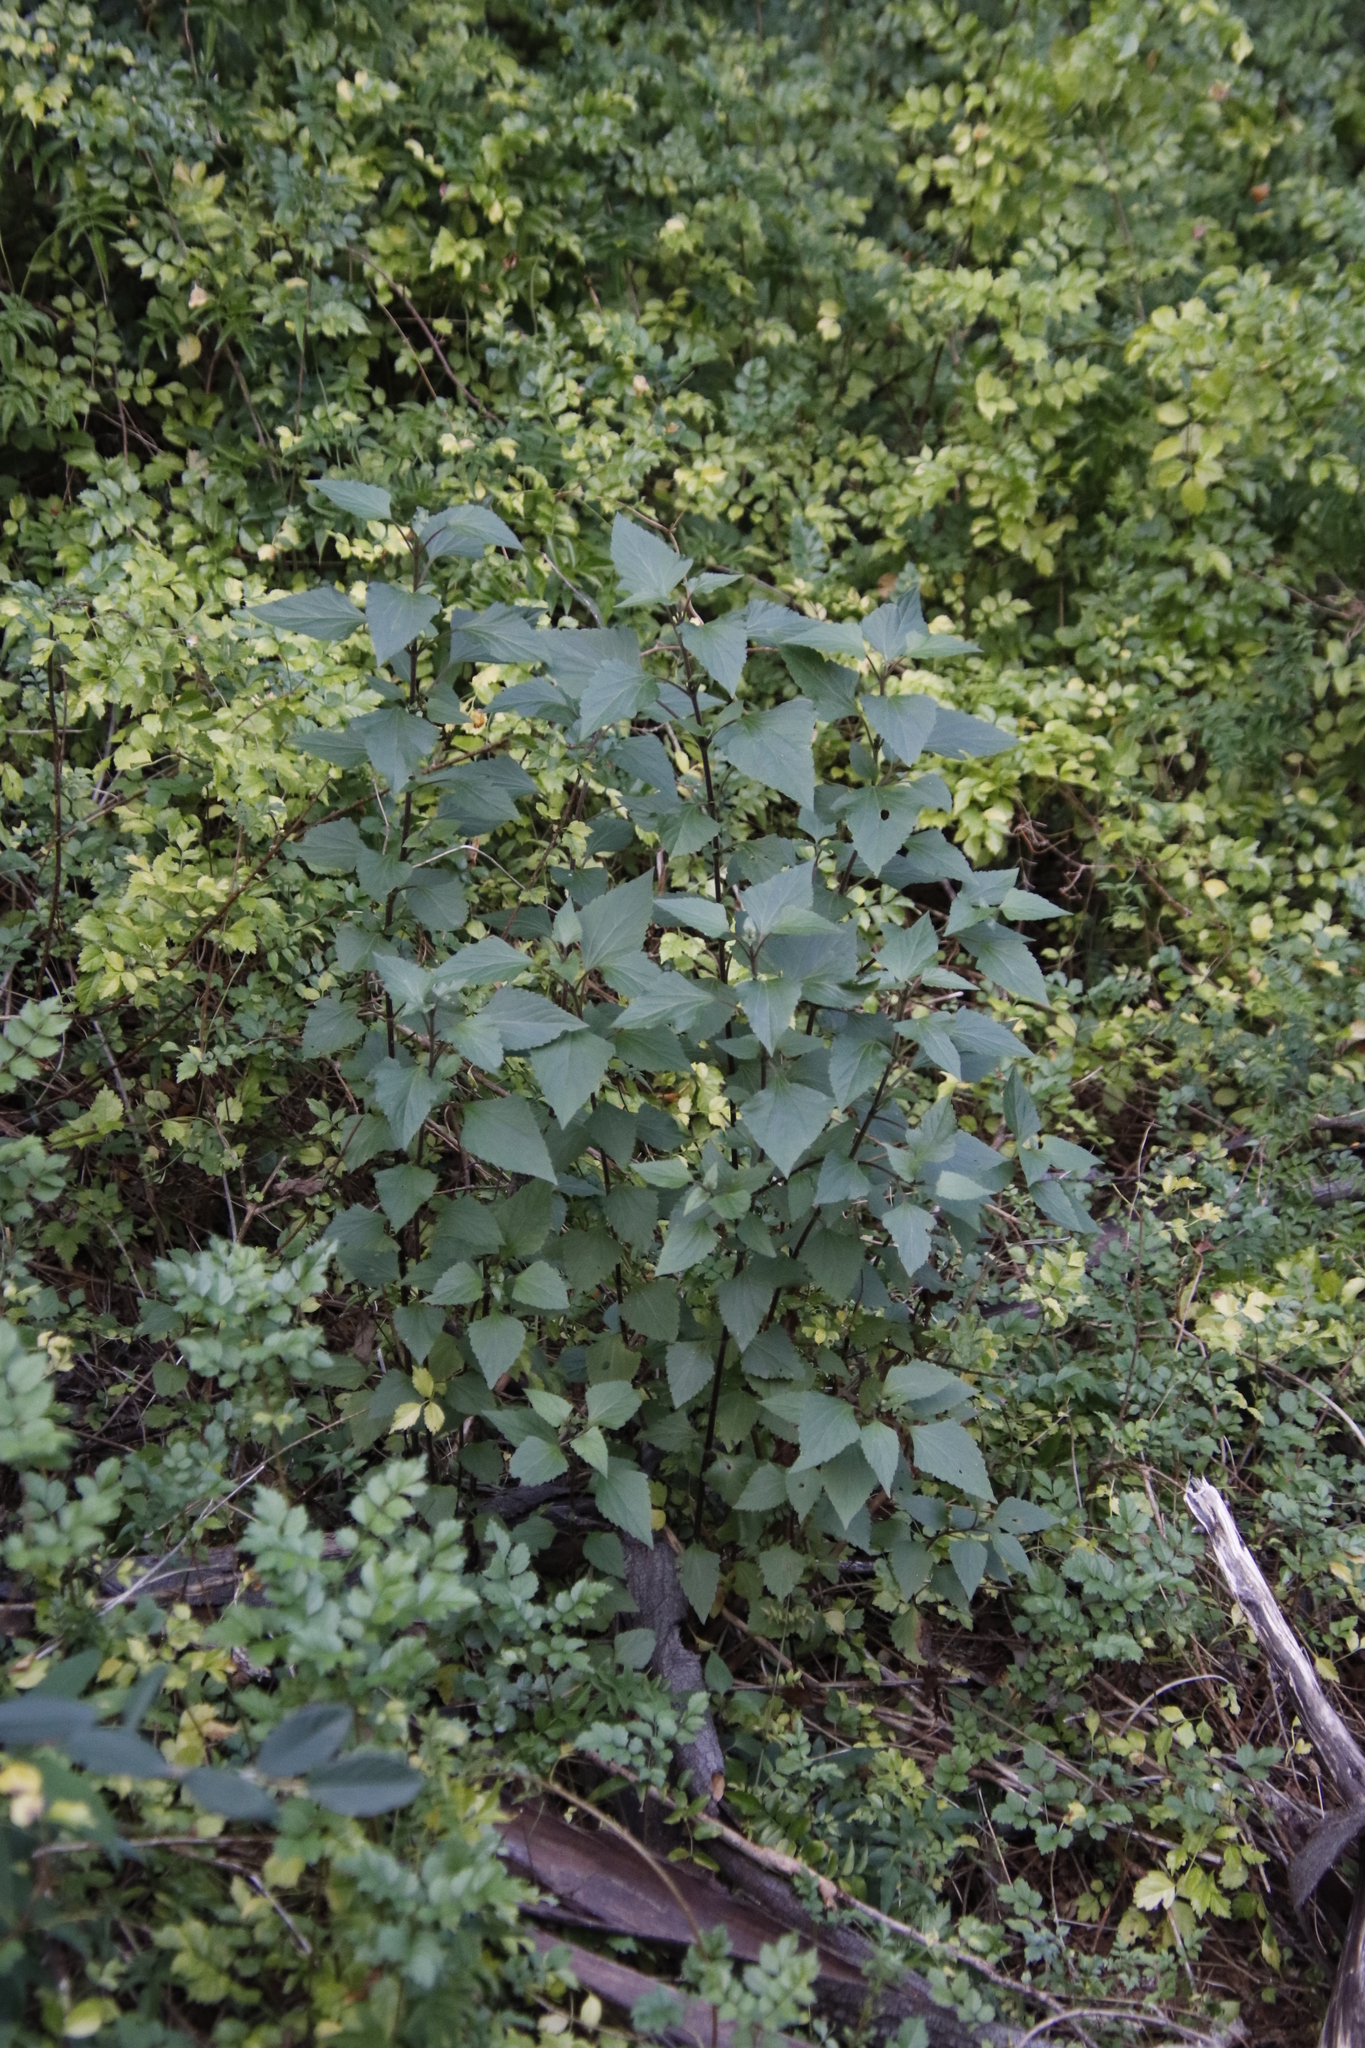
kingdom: Plantae
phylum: Tracheophyta
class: Magnoliopsida
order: Asterales
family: Asteraceae
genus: Ageratina
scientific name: Ageratina adenophora
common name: Sticky snakeroot
